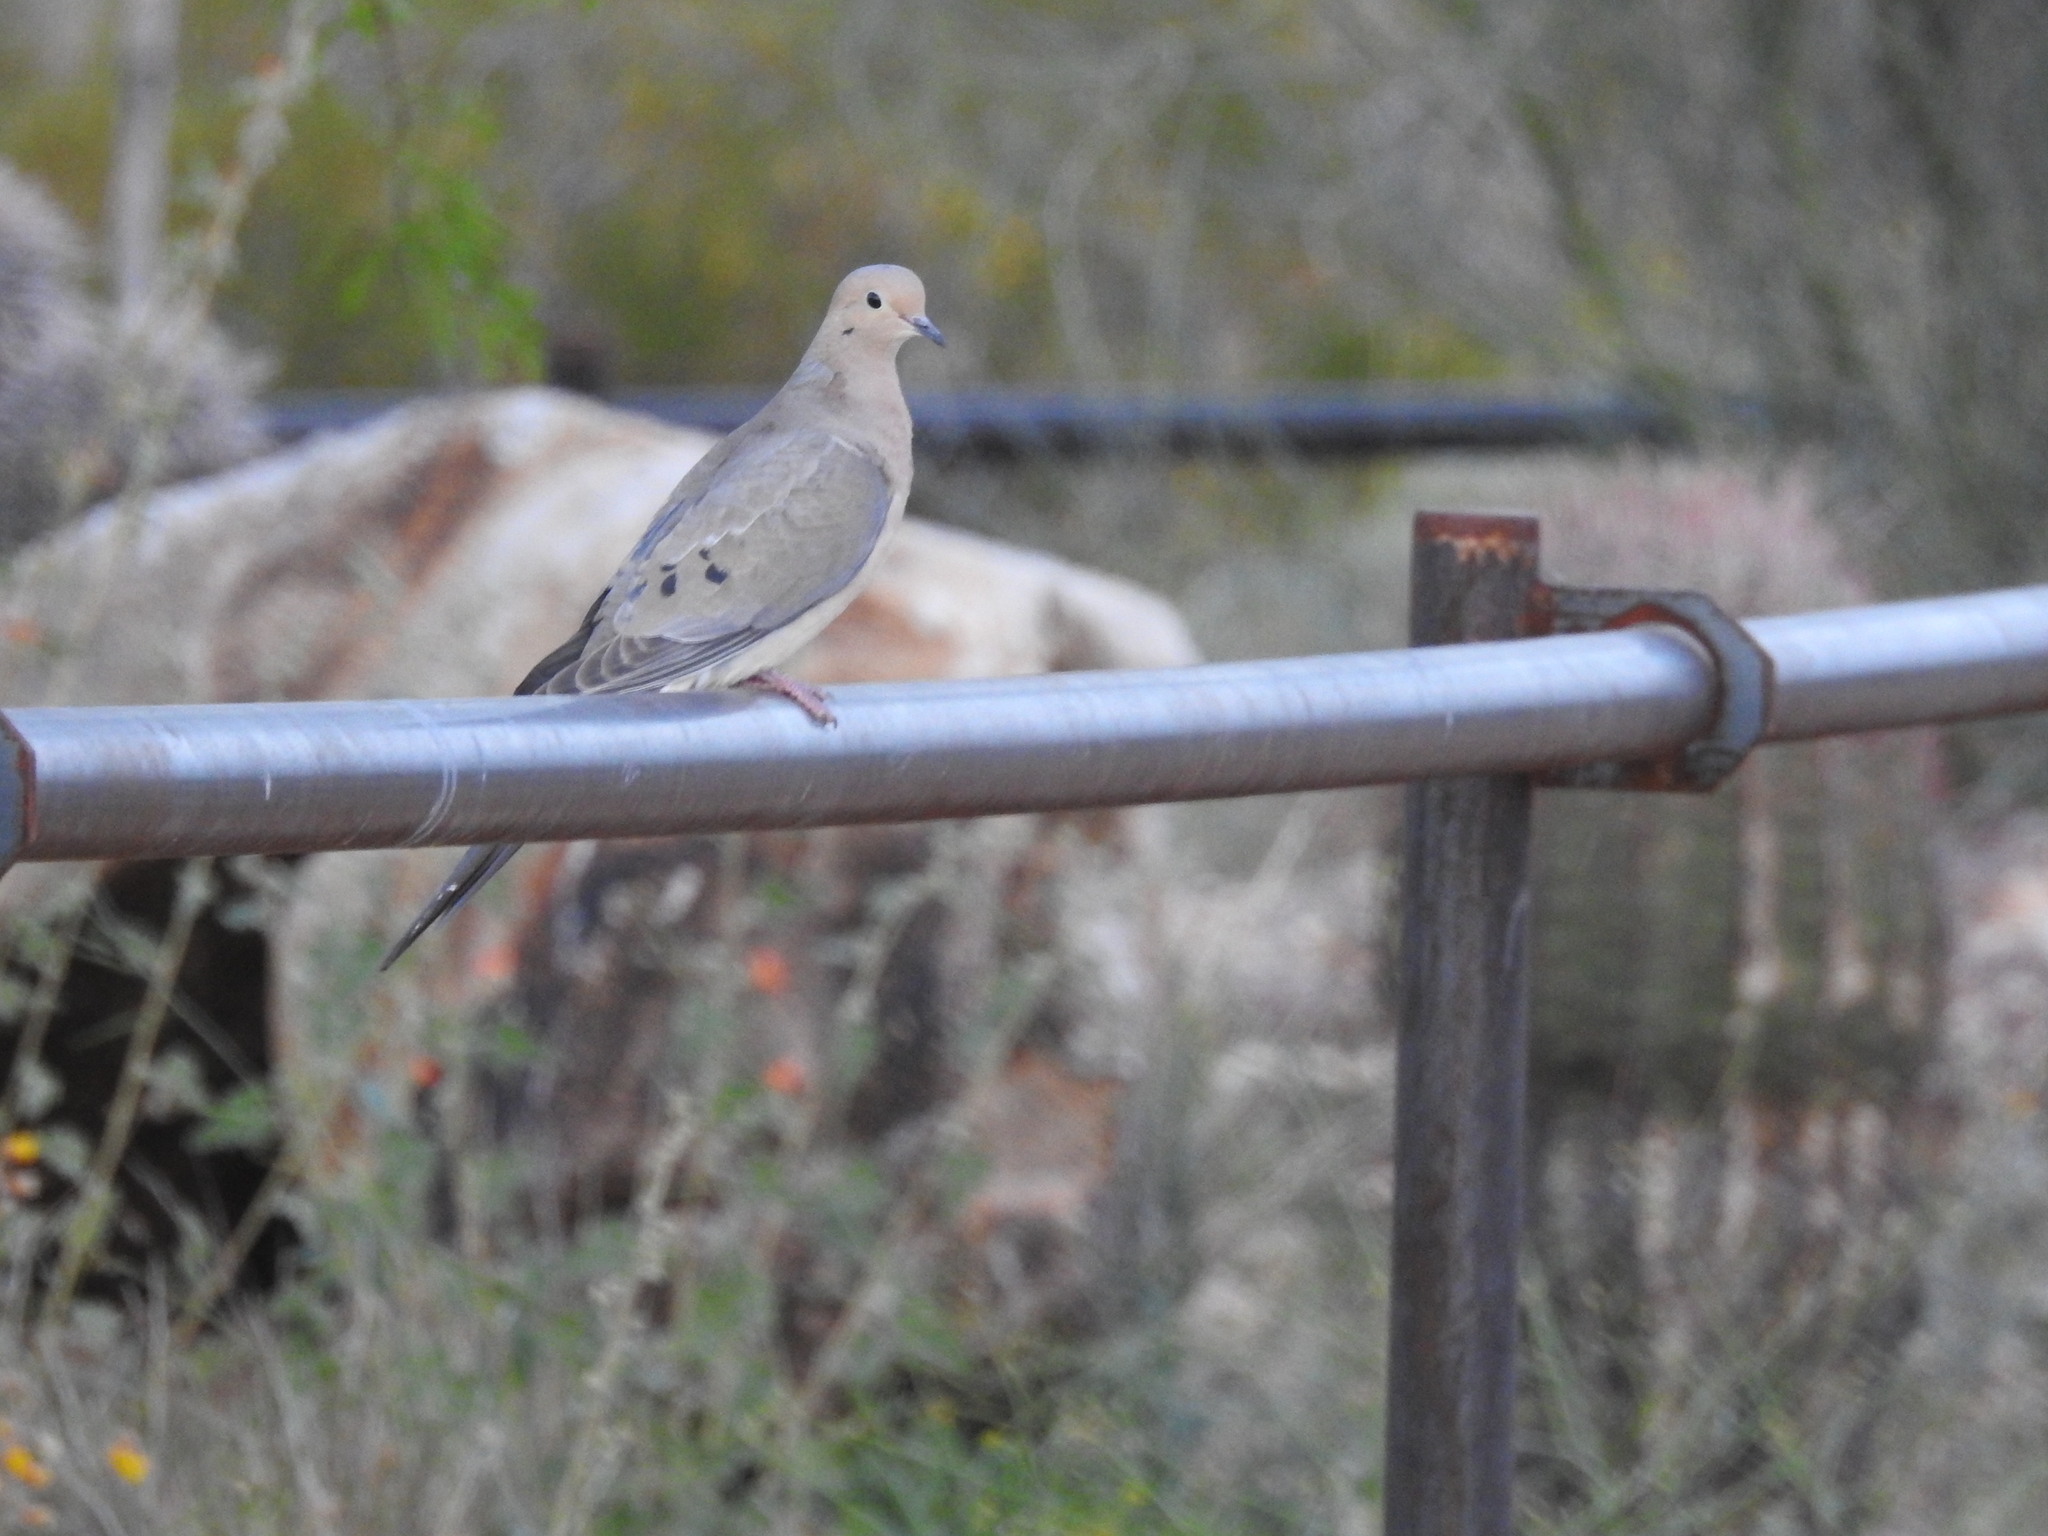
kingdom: Animalia
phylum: Chordata
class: Aves
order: Columbiformes
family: Columbidae
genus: Zenaida
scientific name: Zenaida macroura
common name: Mourning dove
